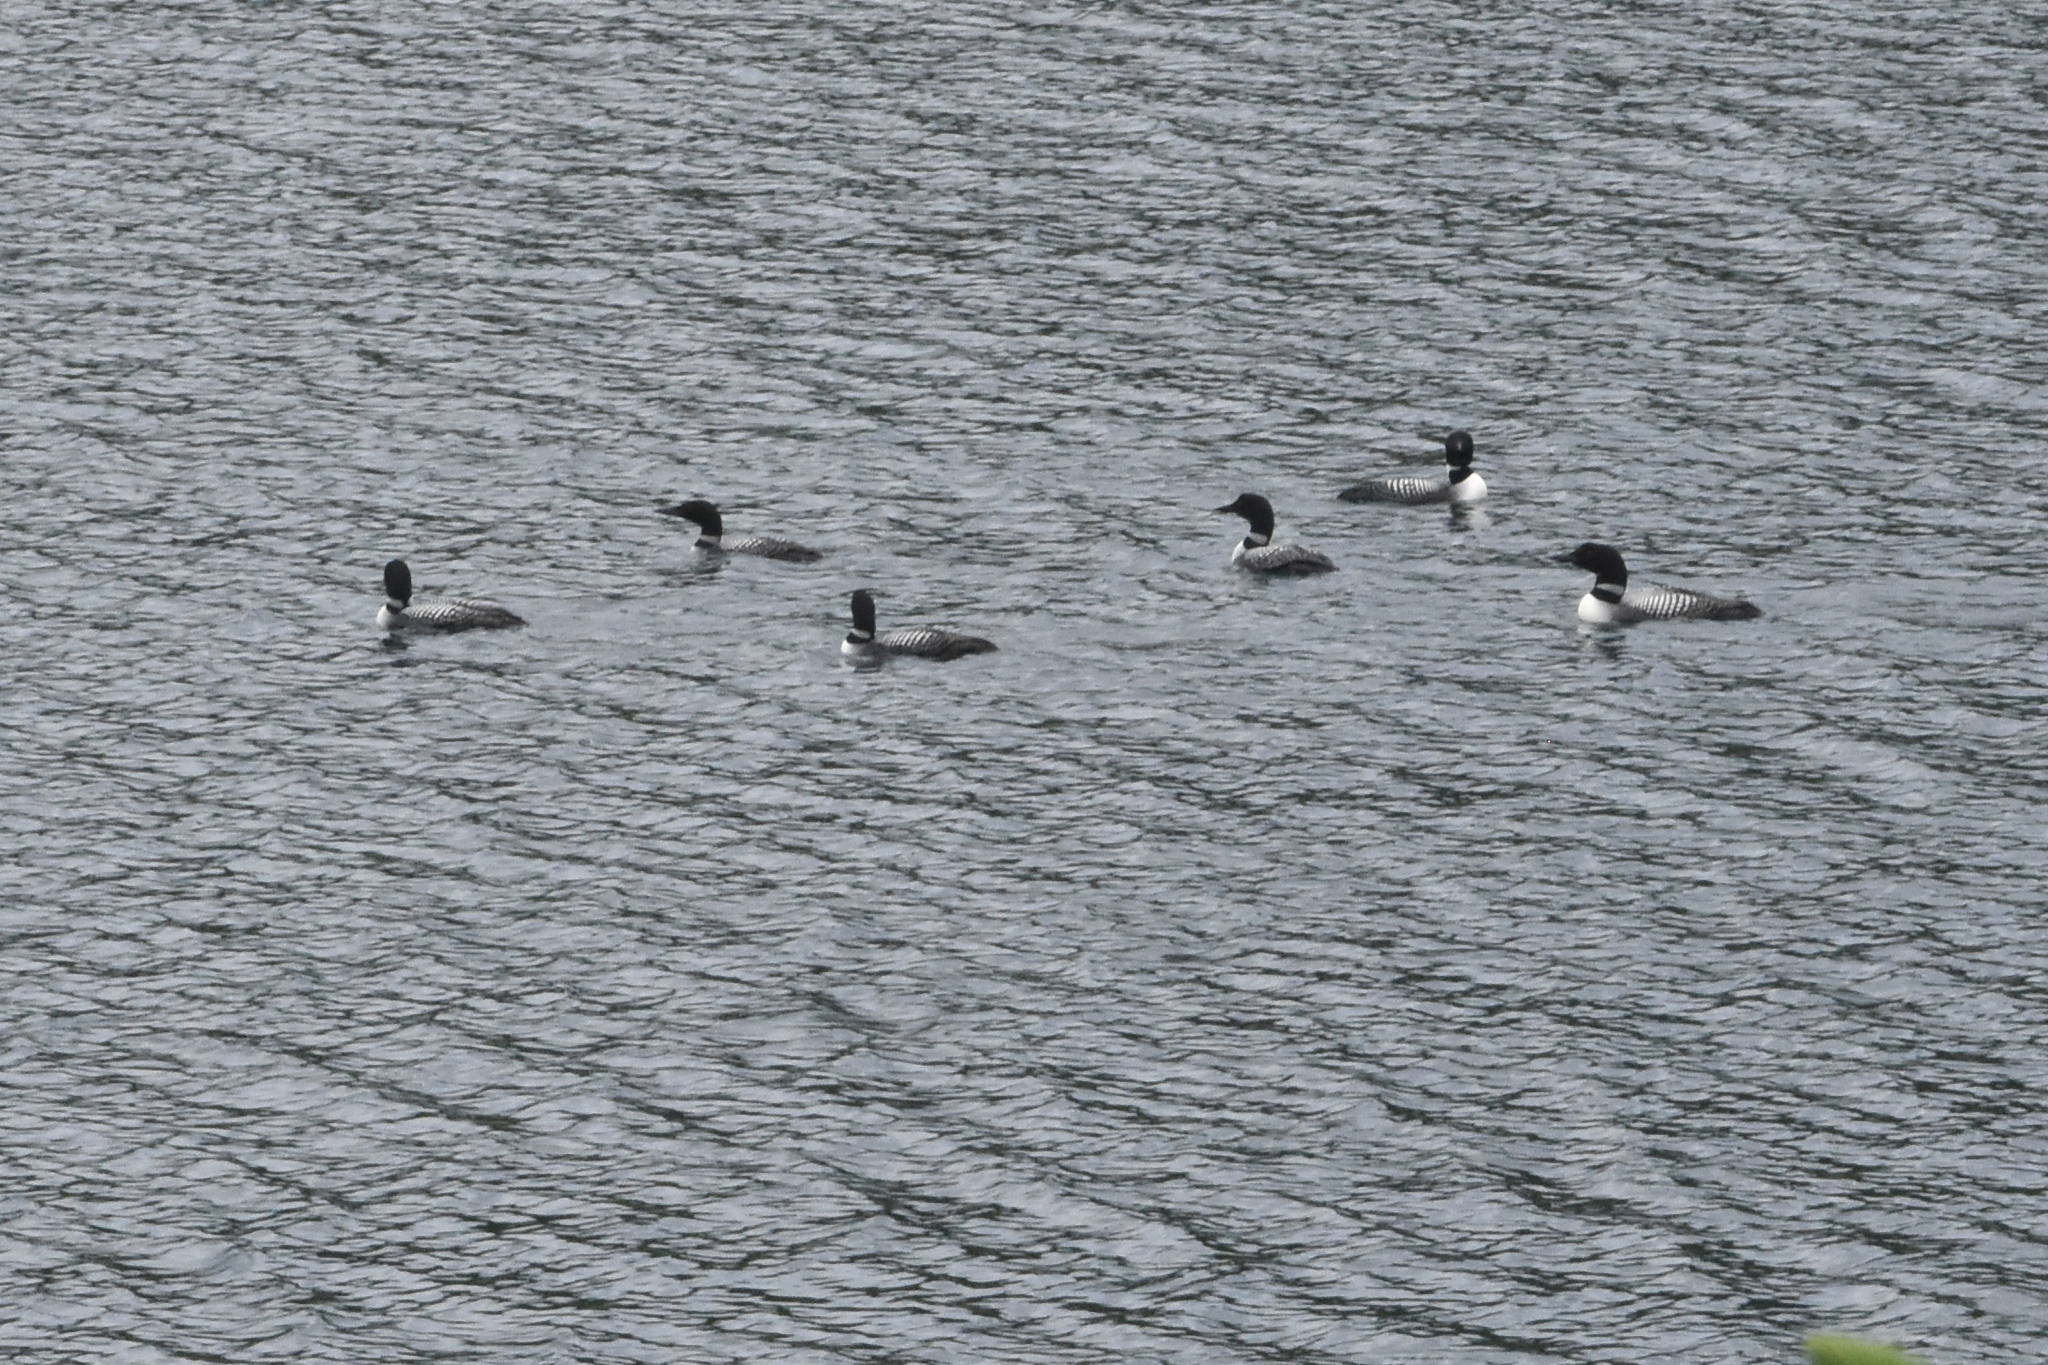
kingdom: Animalia
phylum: Chordata
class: Aves
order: Gaviiformes
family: Gaviidae
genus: Gavia
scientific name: Gavia immer
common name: Common loon
